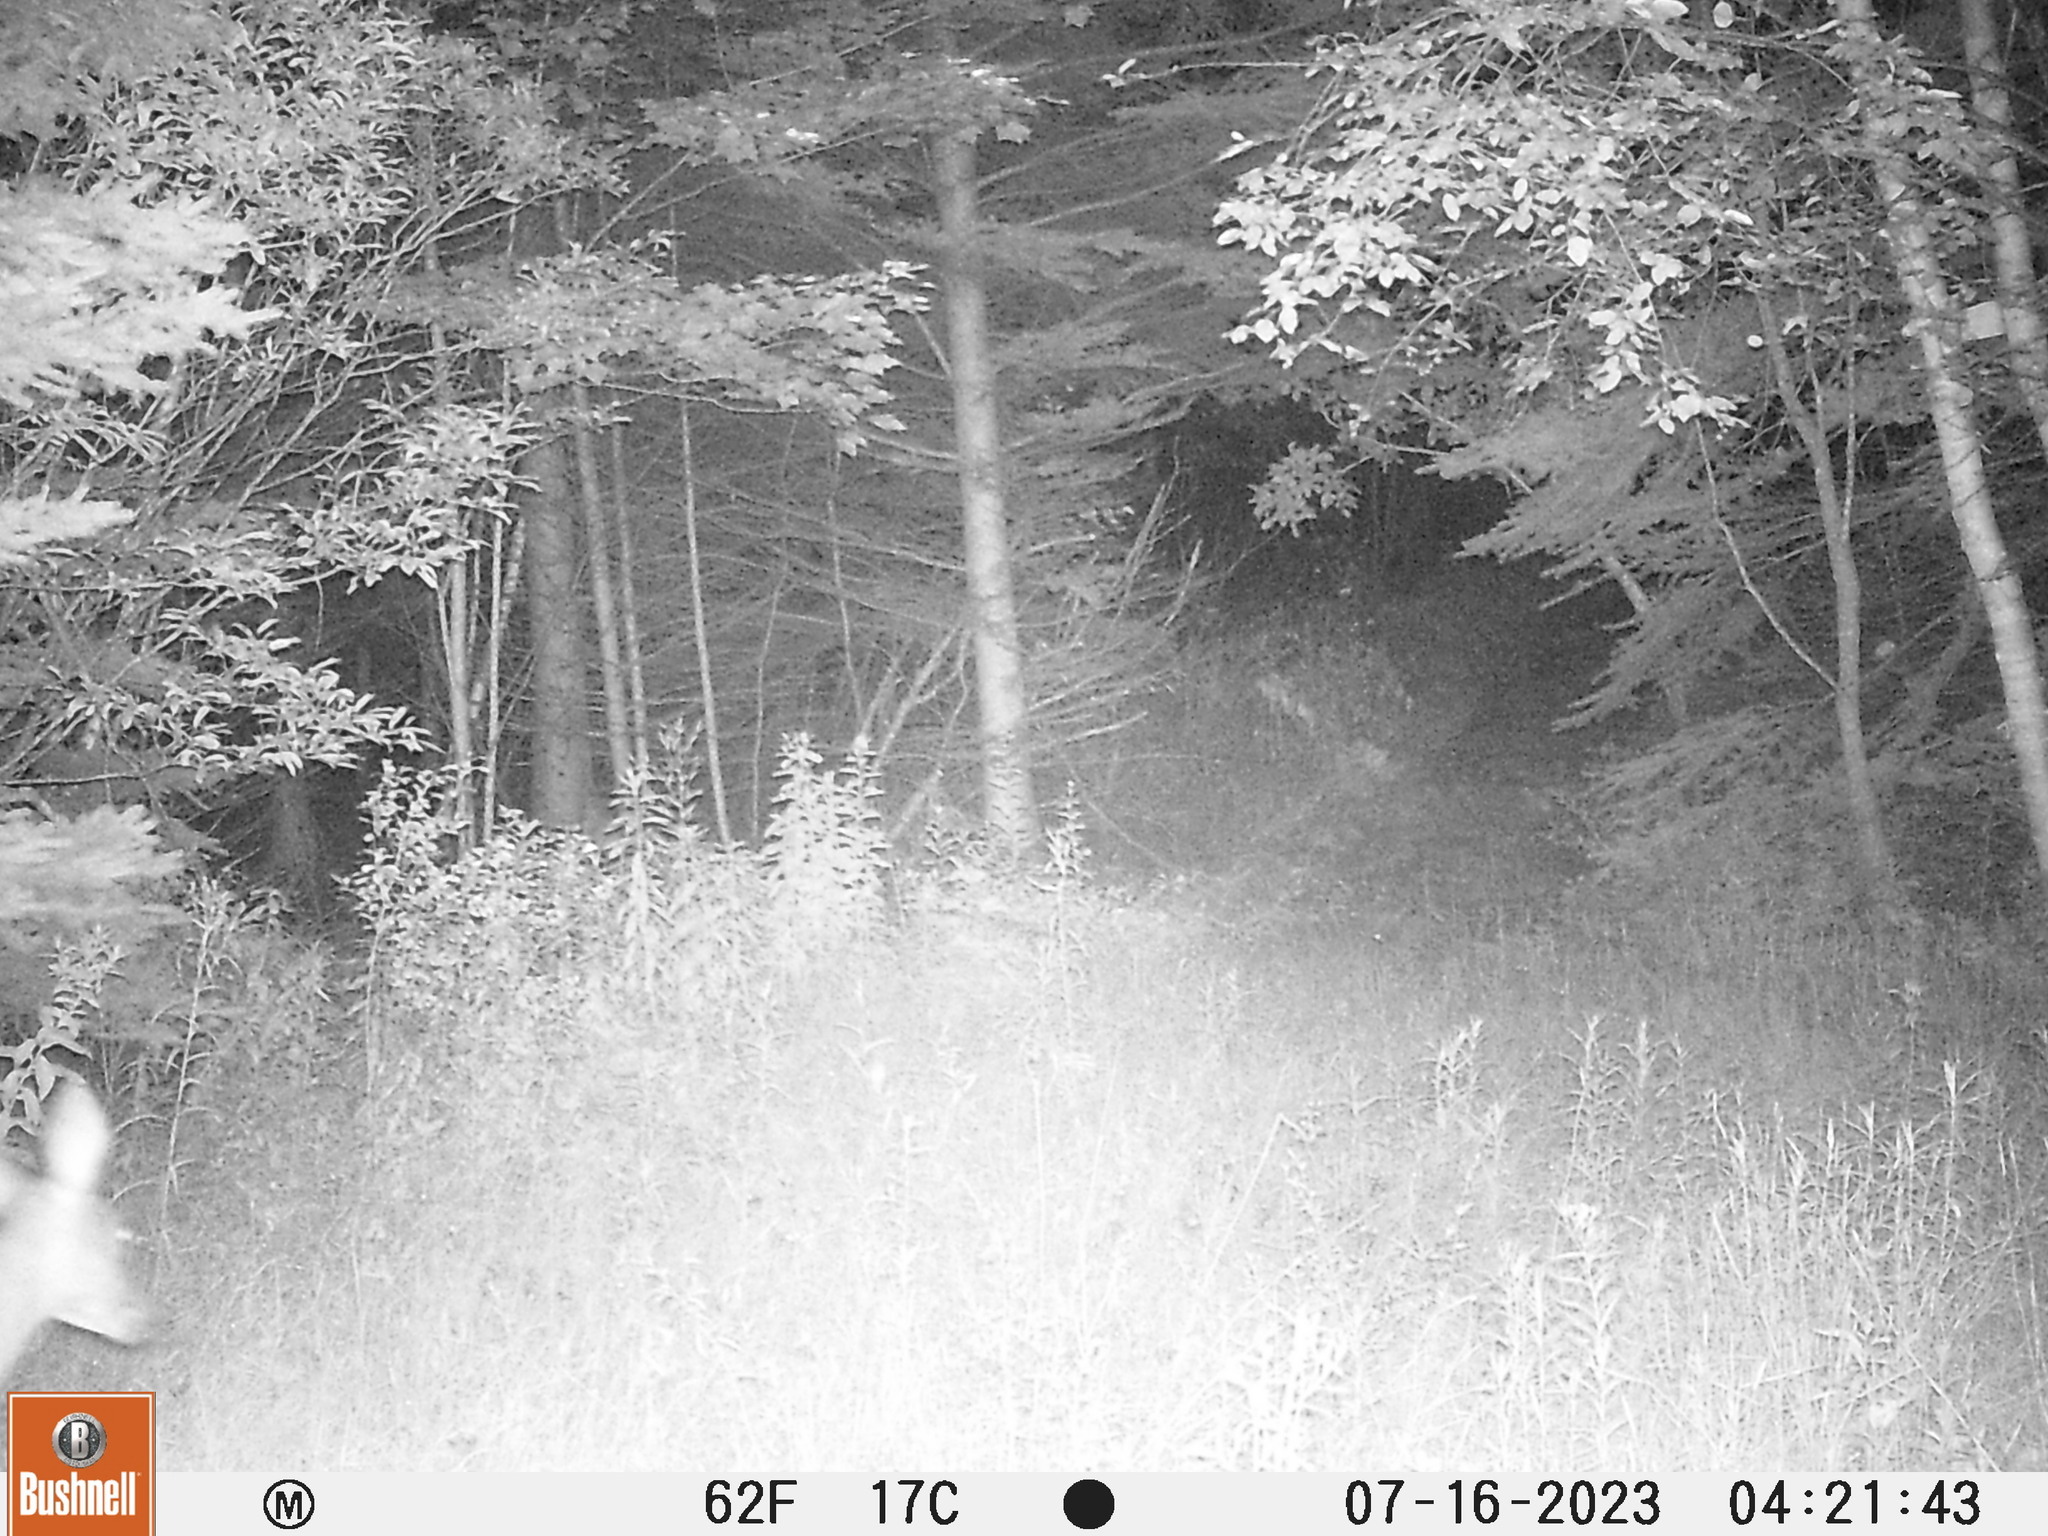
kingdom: Animalia
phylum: Chordata
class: Mammalia
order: Artiodactyla
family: Cervidae
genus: Odocoileus
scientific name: Odocoileus virginianus
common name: White-tailed deer
